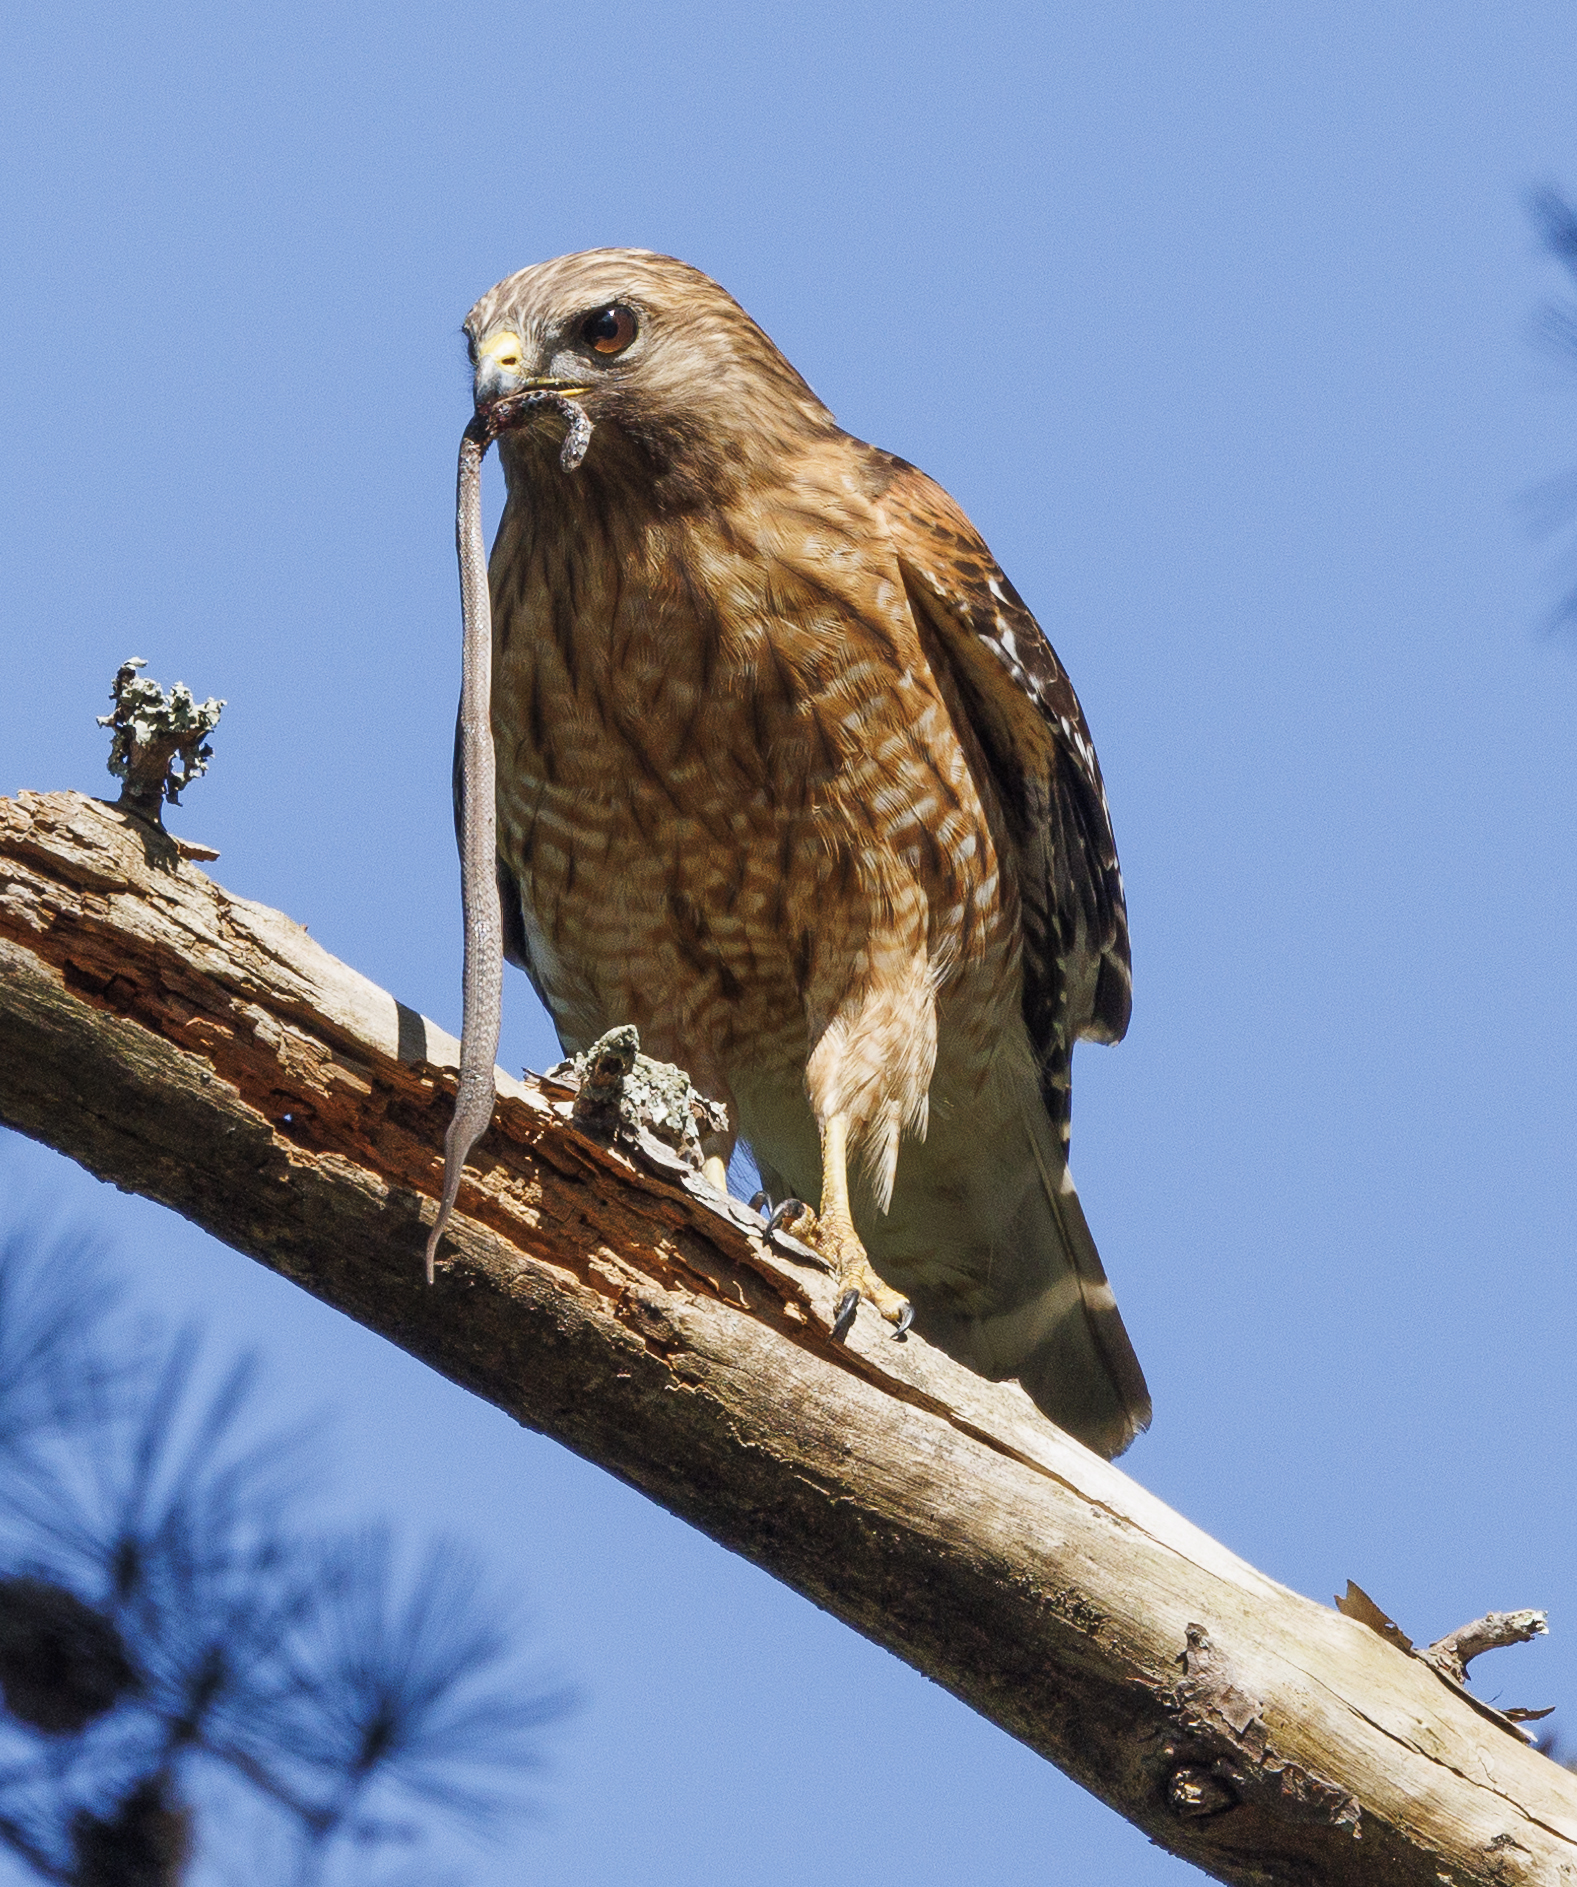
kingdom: Animalia
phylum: Chordata
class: Squamata
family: Colubridae
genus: Storeria
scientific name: Storeria dekayi
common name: (dekay’s) brown snake
